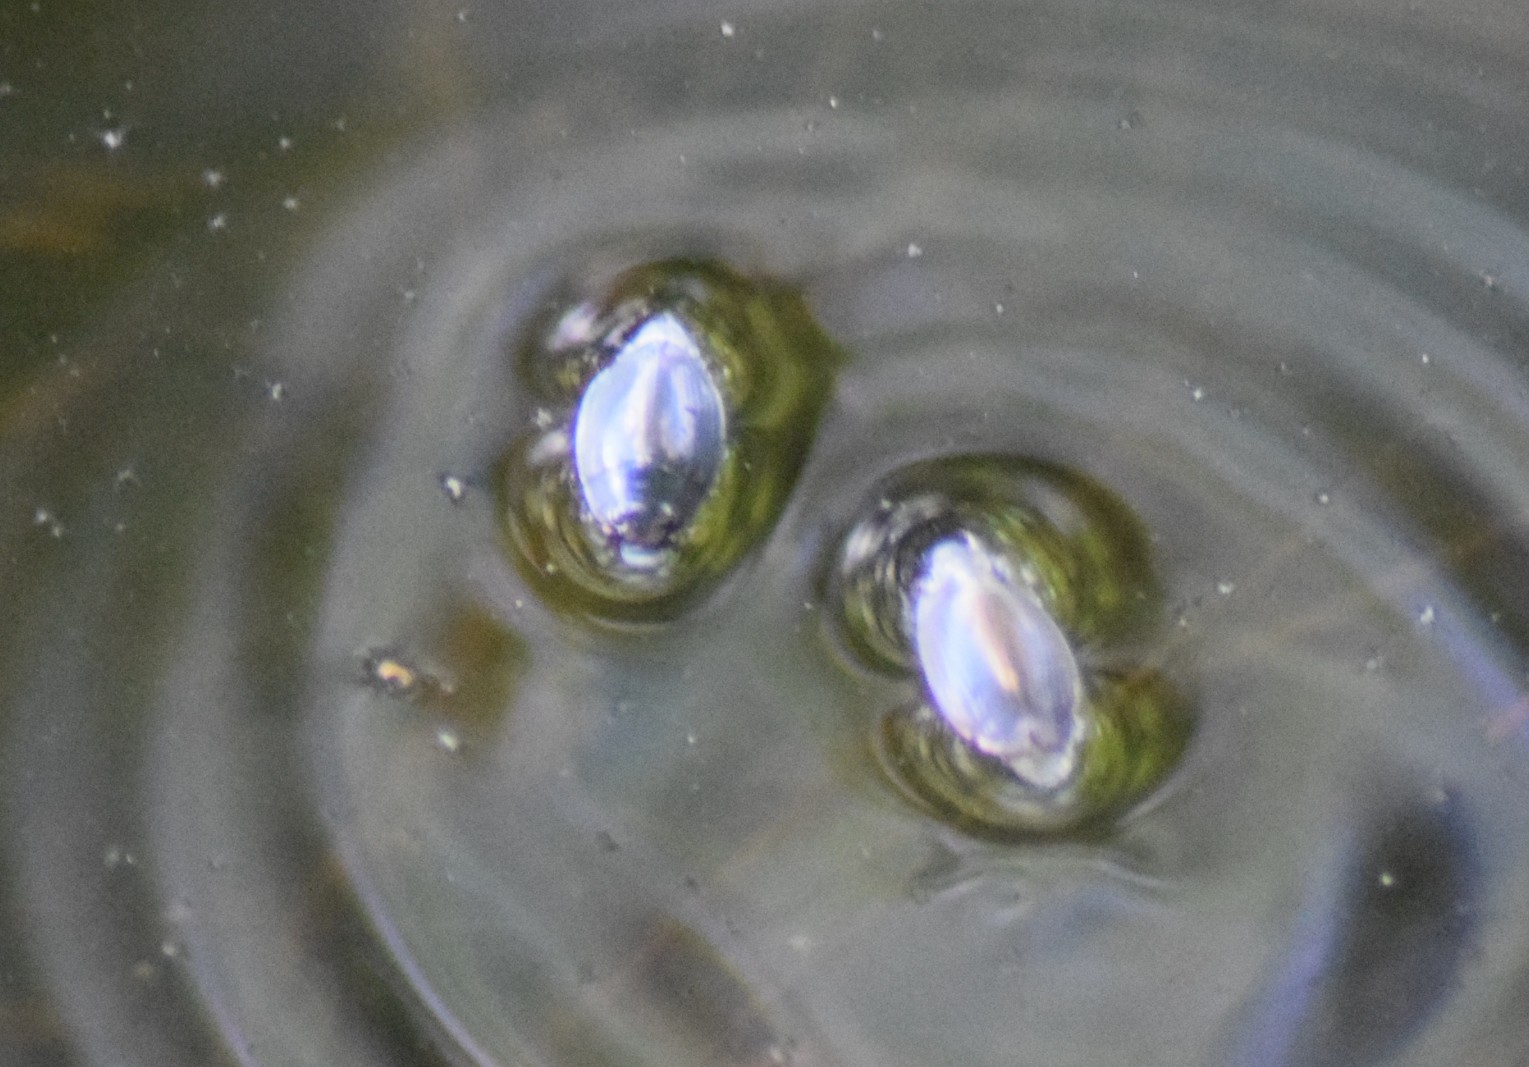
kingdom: Animalia
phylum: Arthropoda
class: Insecta
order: Coleoptera
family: Gyrinidae
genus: Dineutus
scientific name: Dineutus
